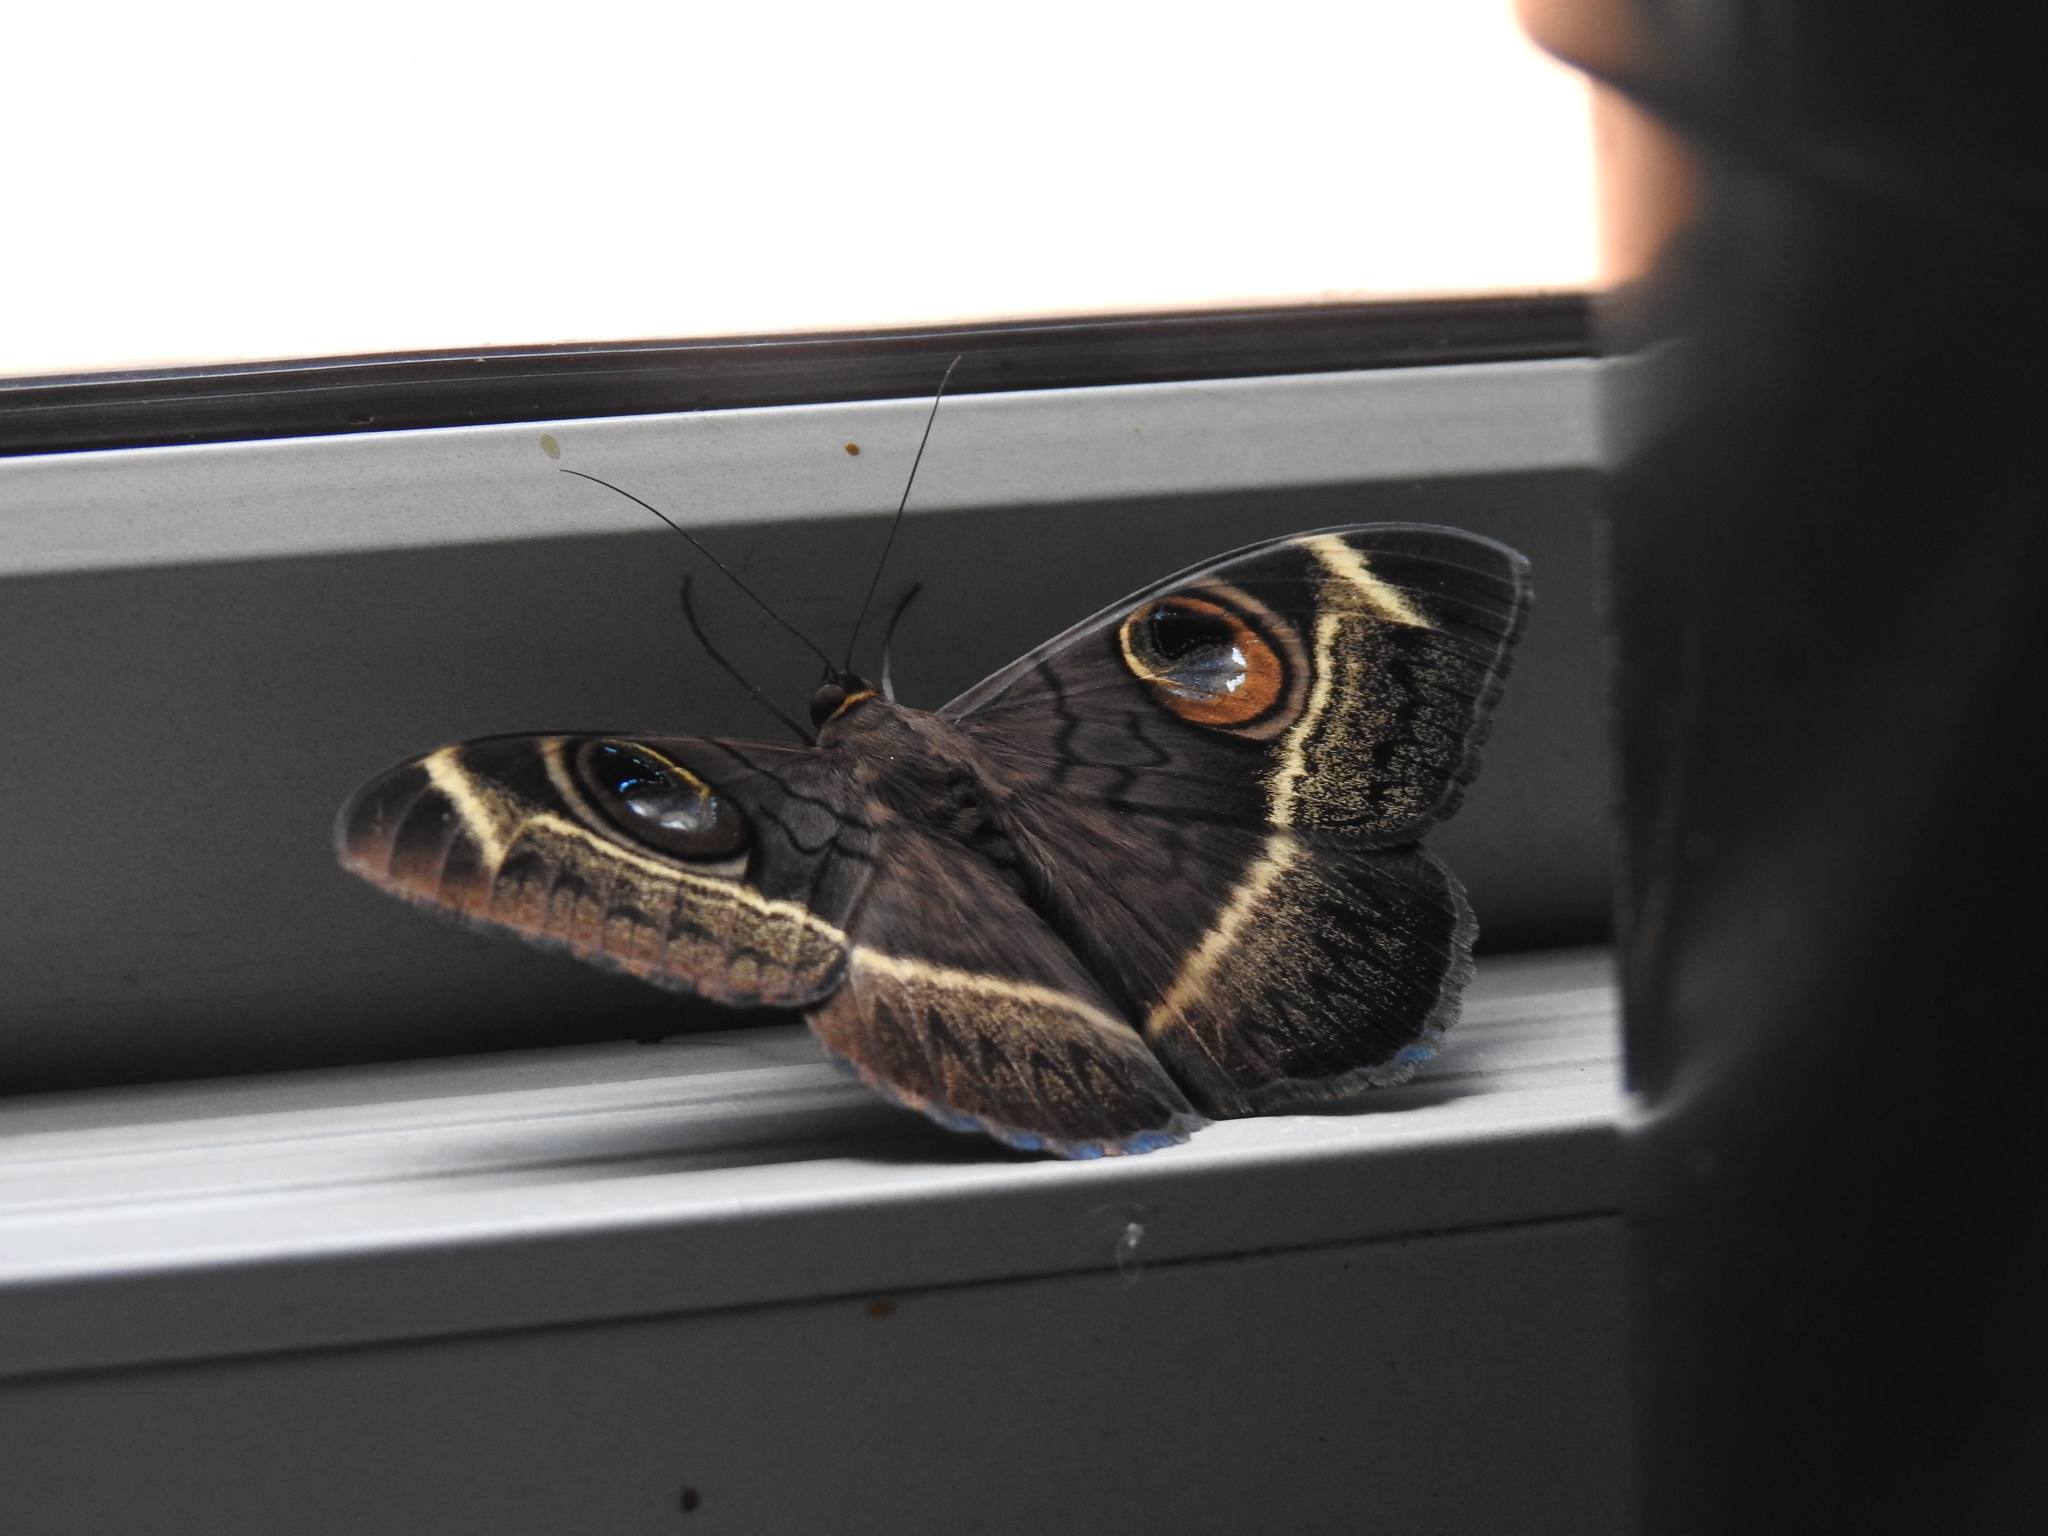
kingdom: Animalia
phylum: Arthropoda
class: Insecta
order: Lepidoptera
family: Erebidae
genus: Cyligramma
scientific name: Cyligramma latona
